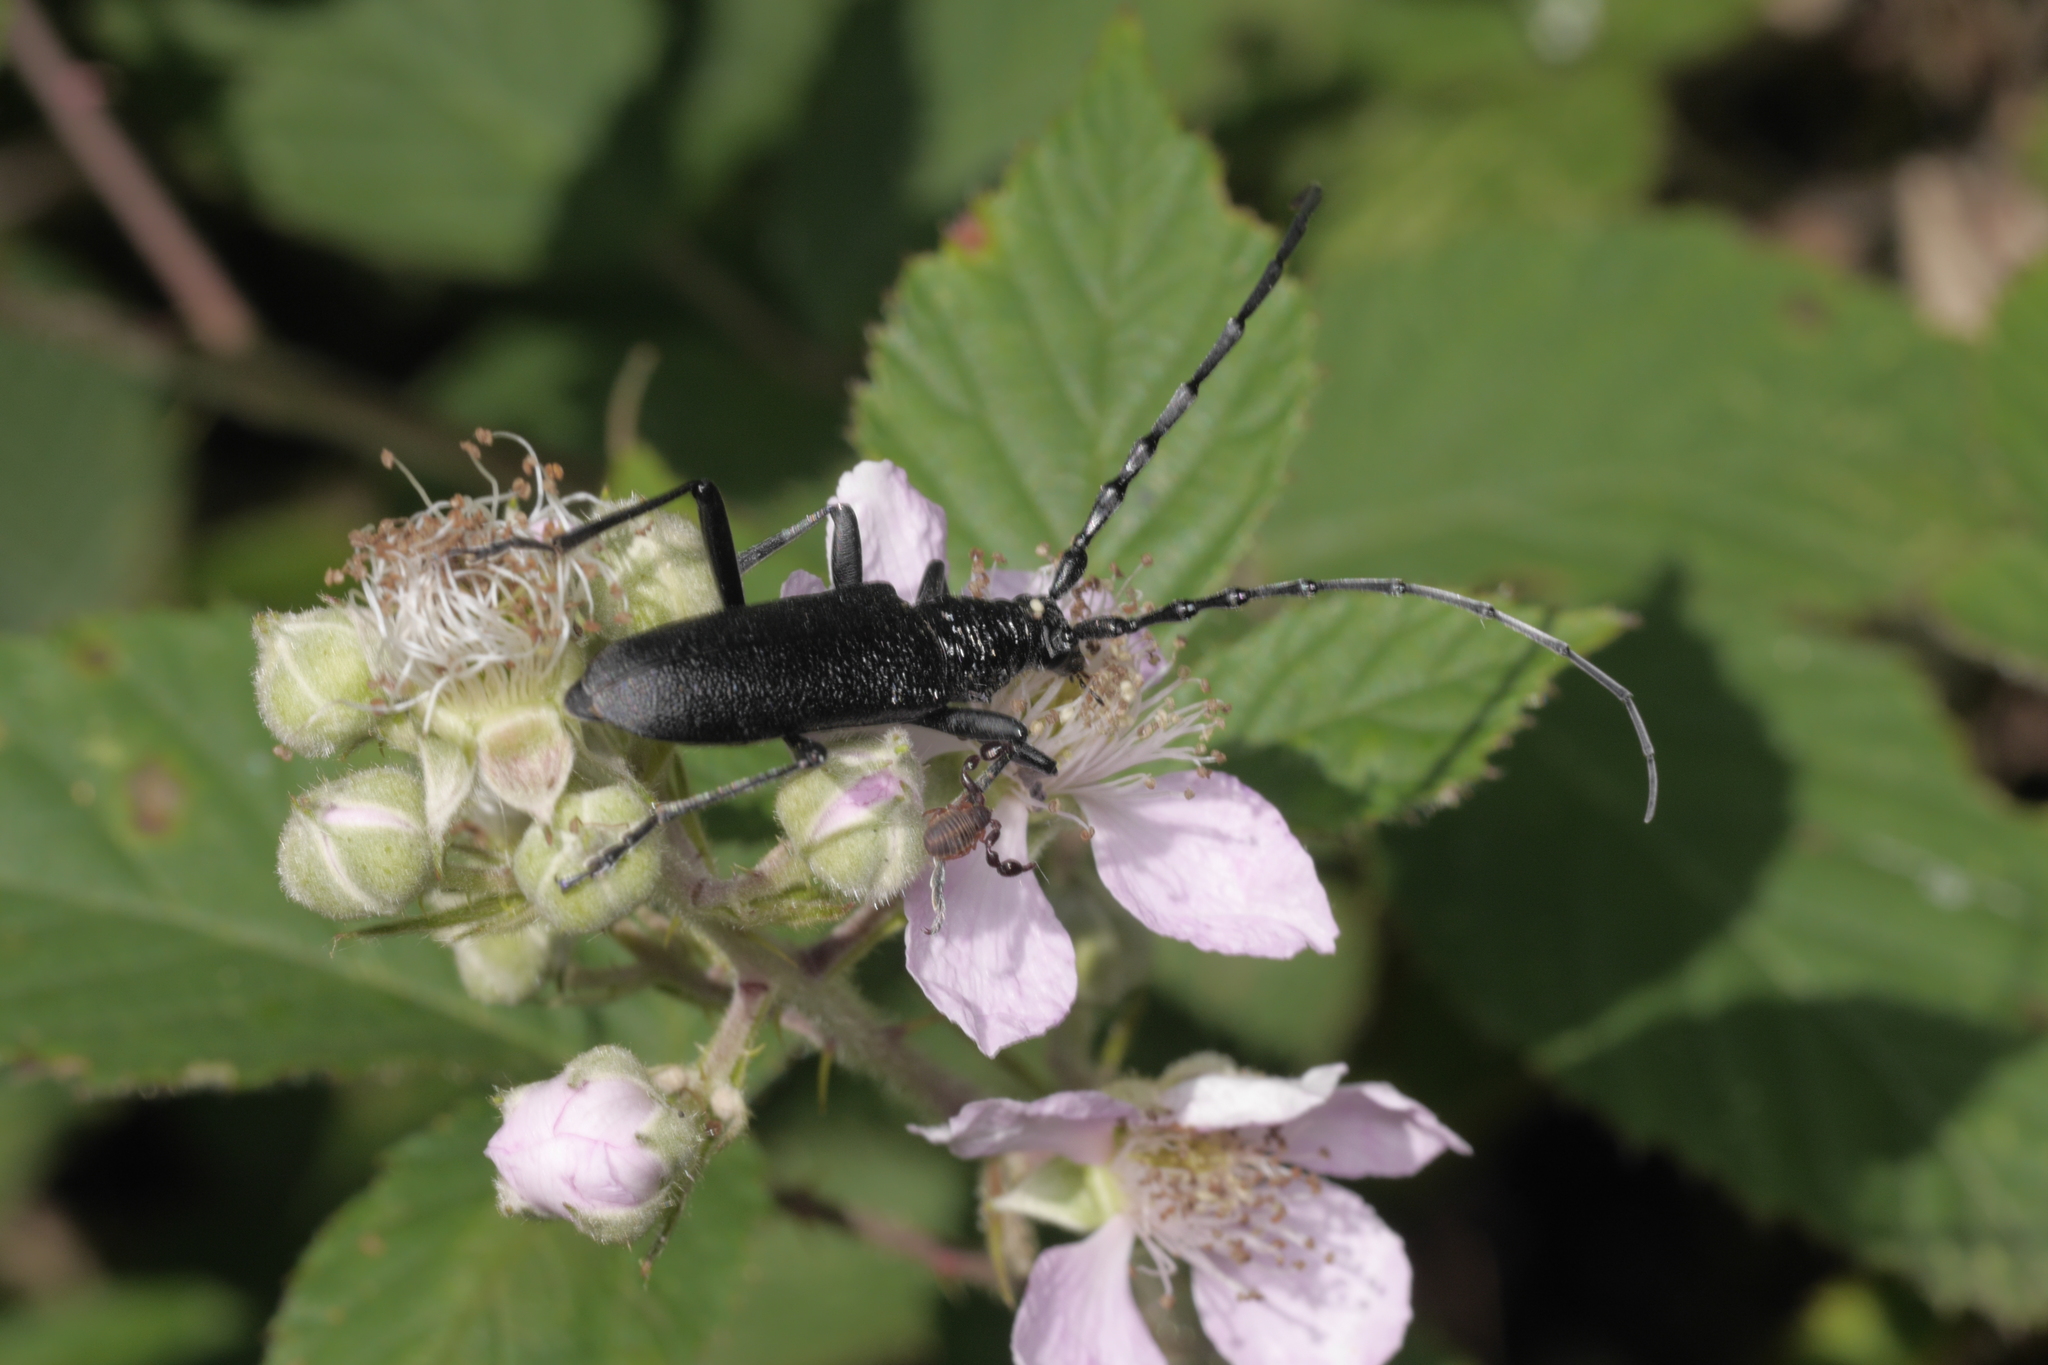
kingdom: Animalia
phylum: Arthropoda
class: Insecta
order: Coleoptera
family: Cerambycidae
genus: Cerambyx
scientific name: Cerambyx scopolii
